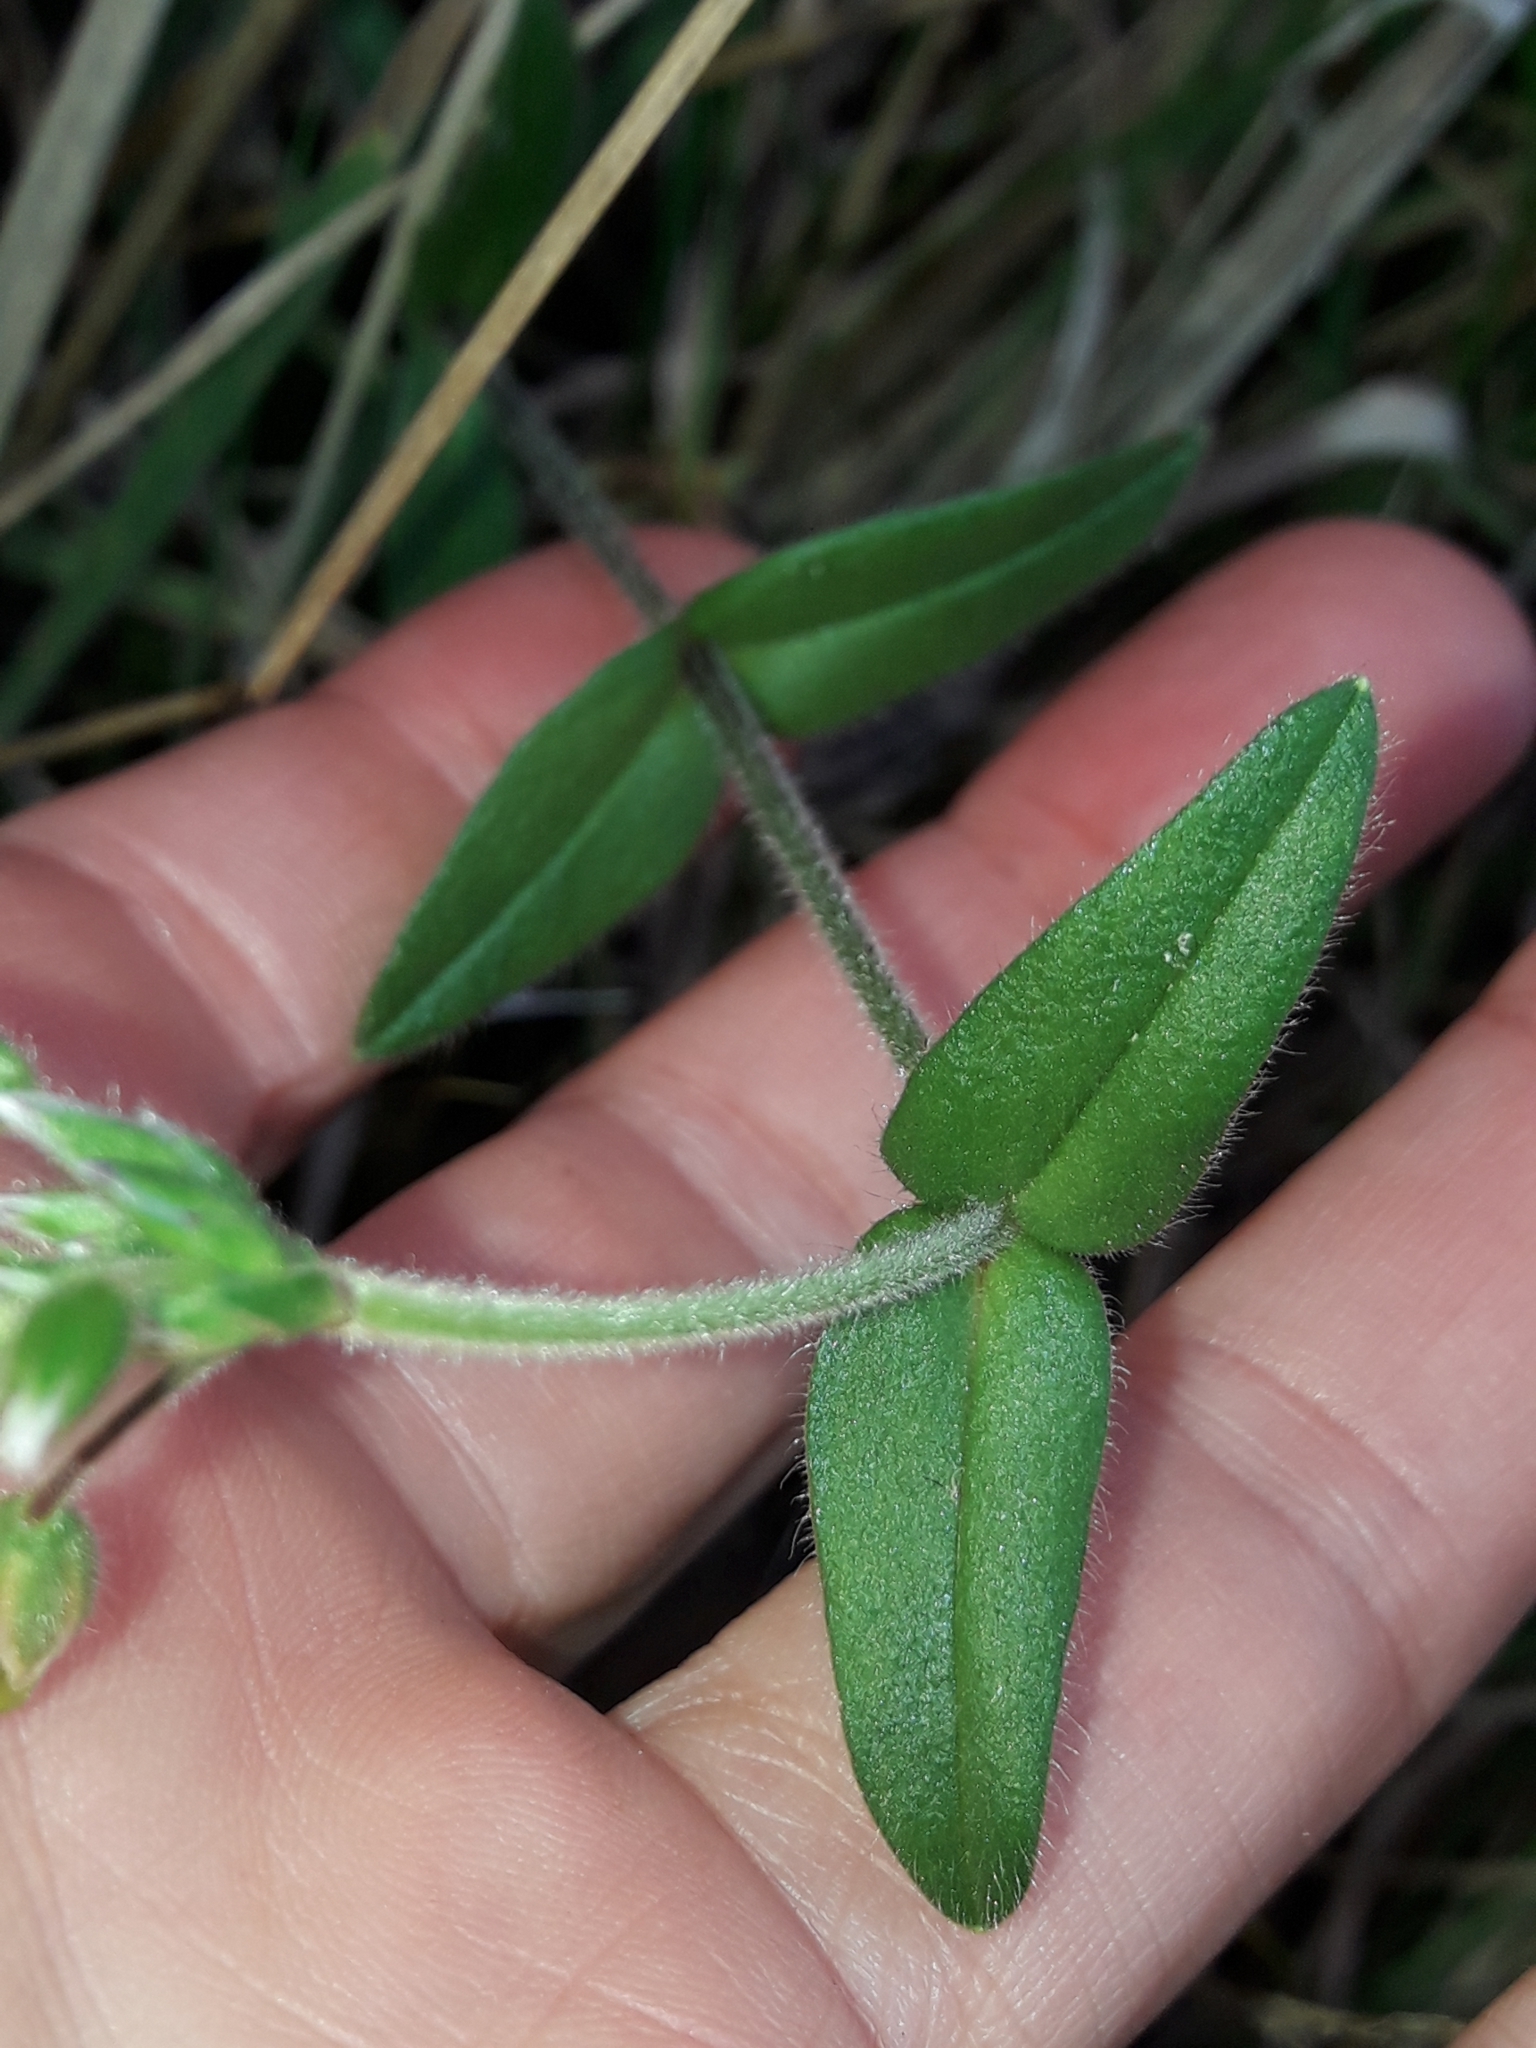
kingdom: Plantae
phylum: Tracheophyta
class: Magnoliopsida
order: Caryophyllales
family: Caryophyllaceae
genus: Cerastium
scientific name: Cerastium fontanum
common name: Common mouse-ear
